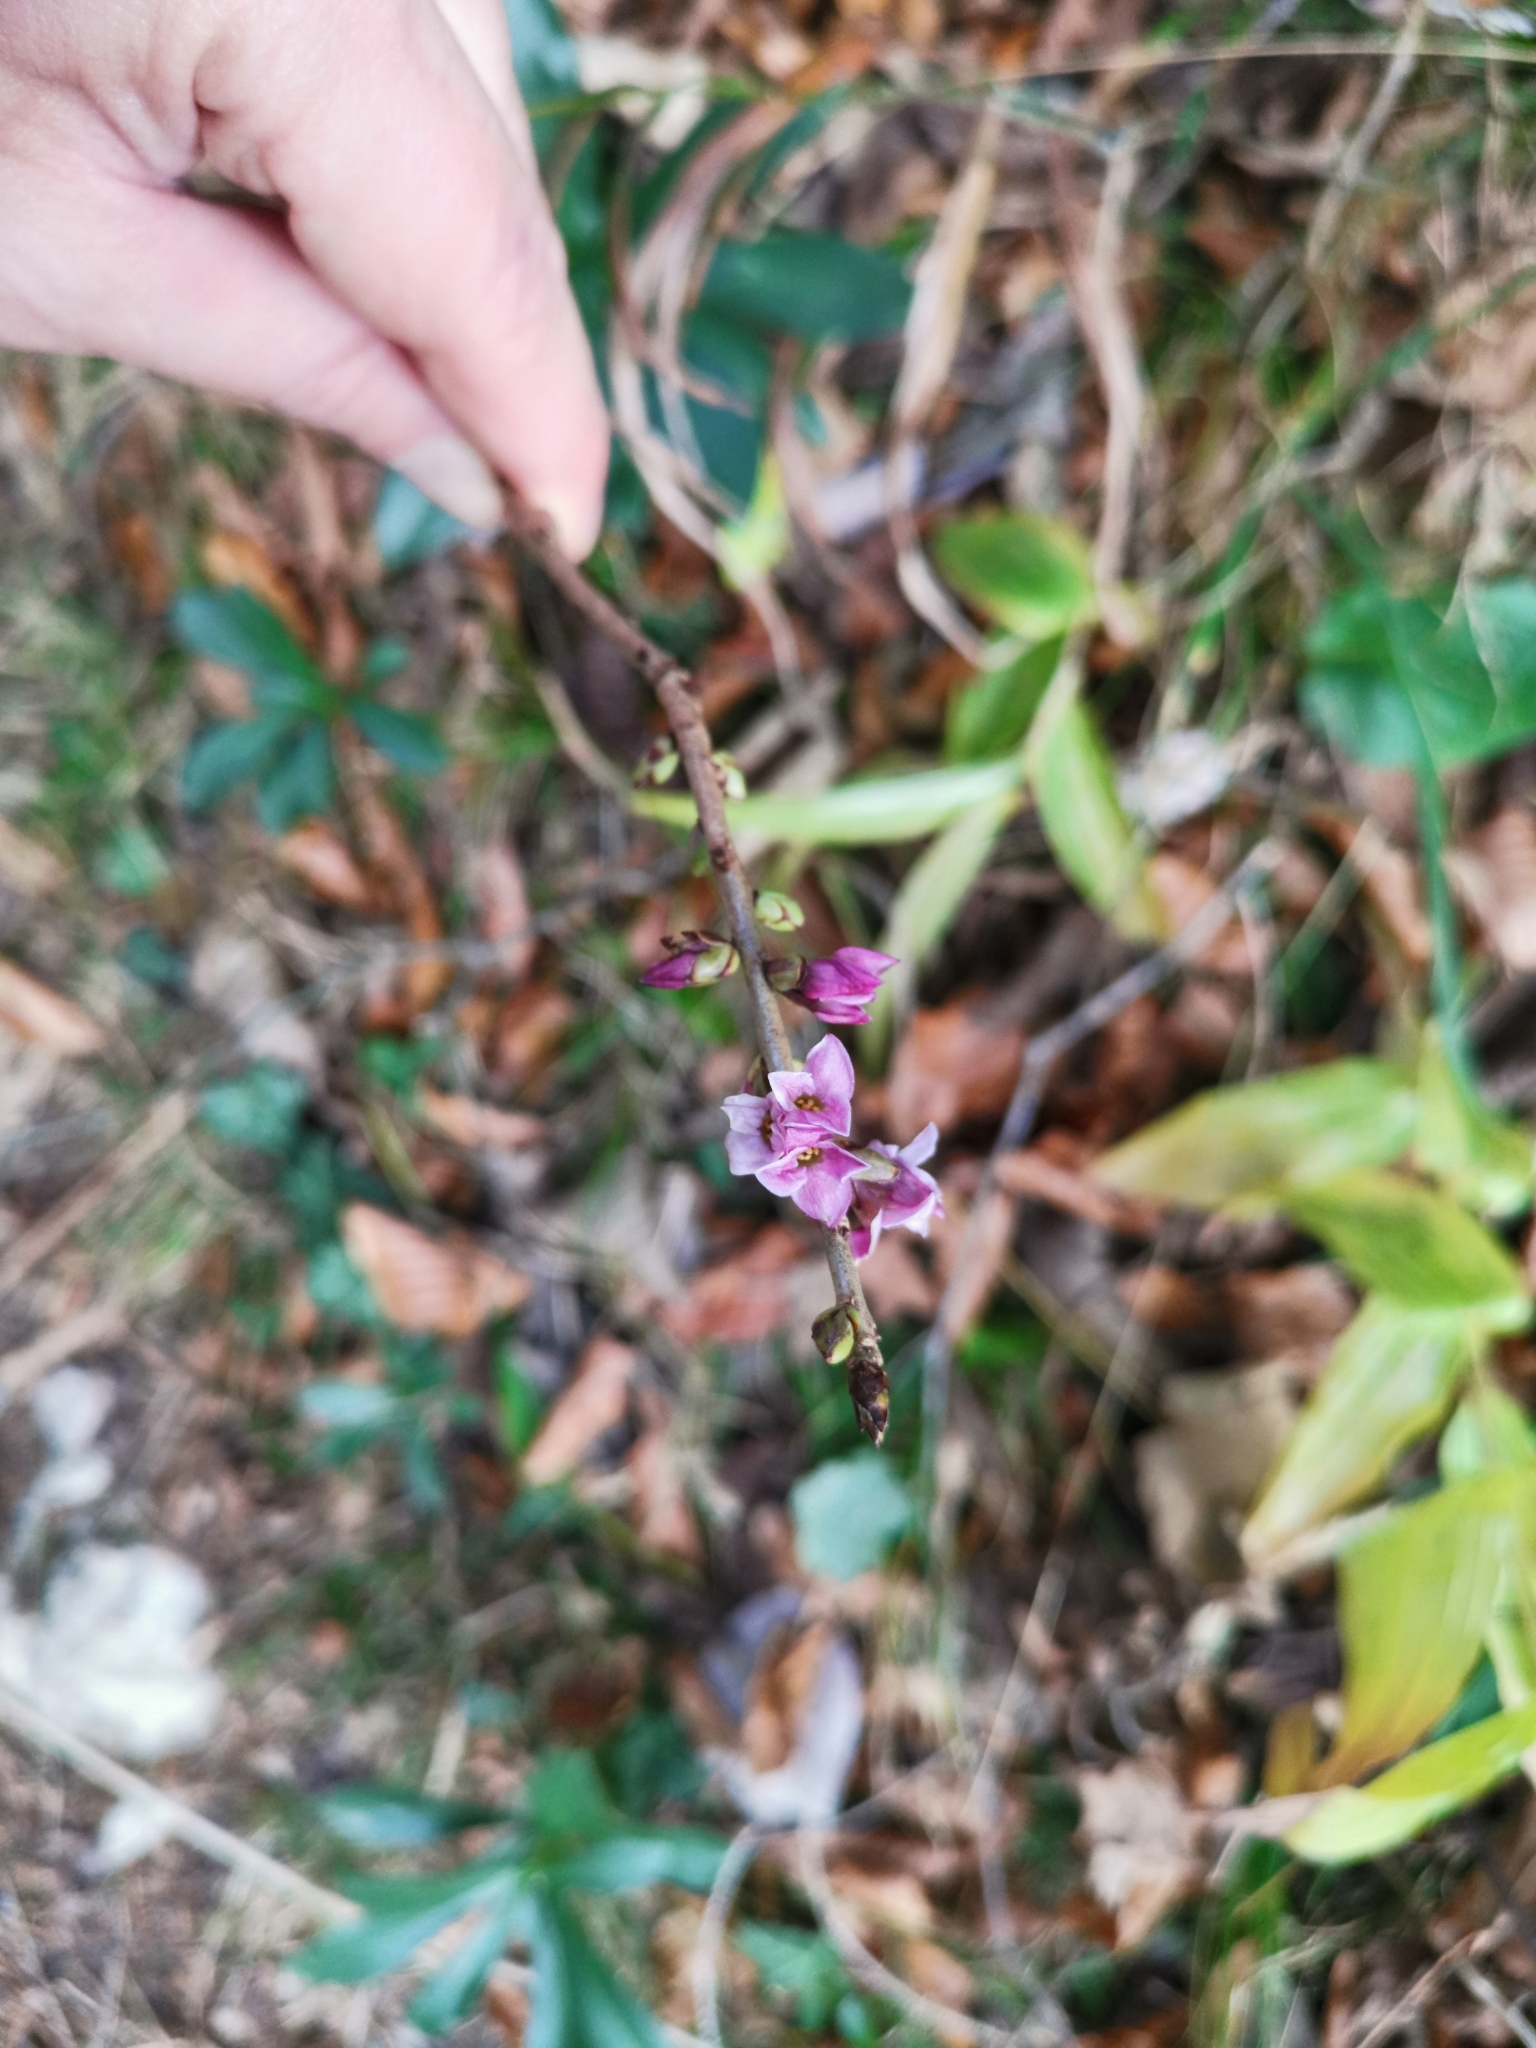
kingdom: Plantae
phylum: Tracheophyta
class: Magnoliopsida
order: Malvales
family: Thymelaeaceae
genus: Daphne
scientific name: Daphne mezereum
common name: Mezereon
